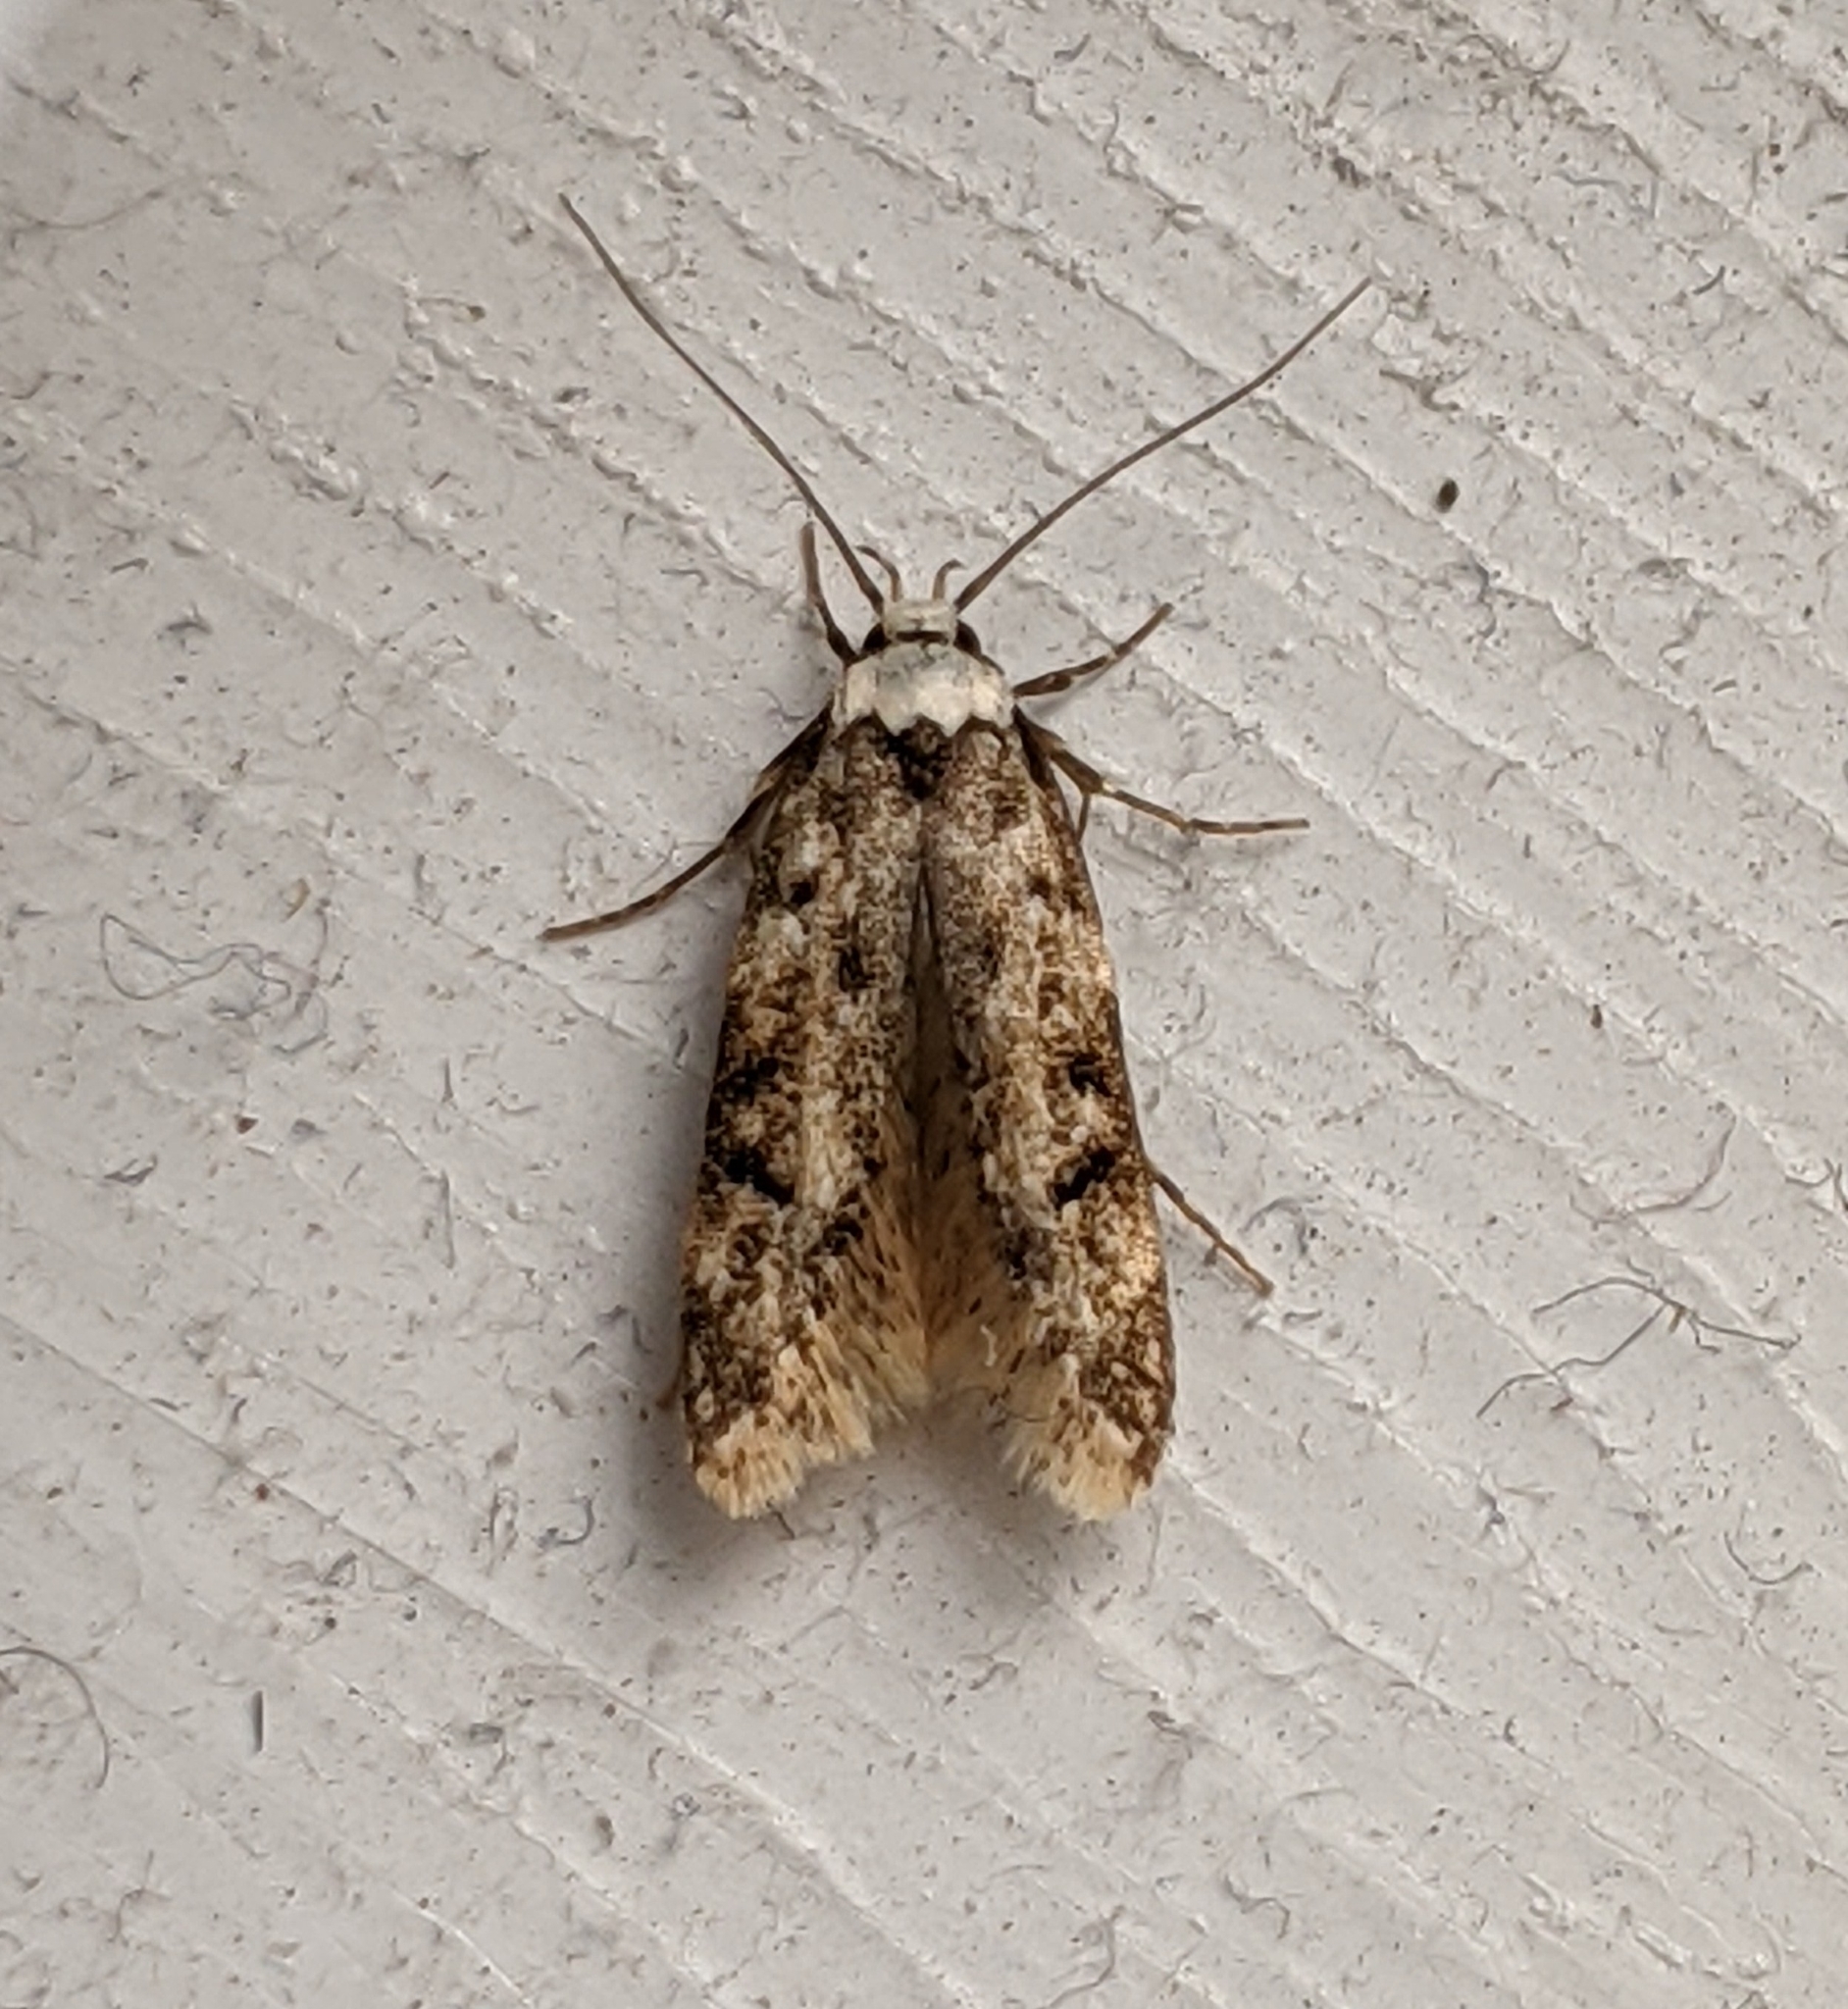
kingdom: Animalia
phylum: Arthropoda
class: Insecta
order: Lepidoptera
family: Oecophoridae
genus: Endrosis
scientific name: Endrosis sarcitrella
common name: White-shouldered house moth
